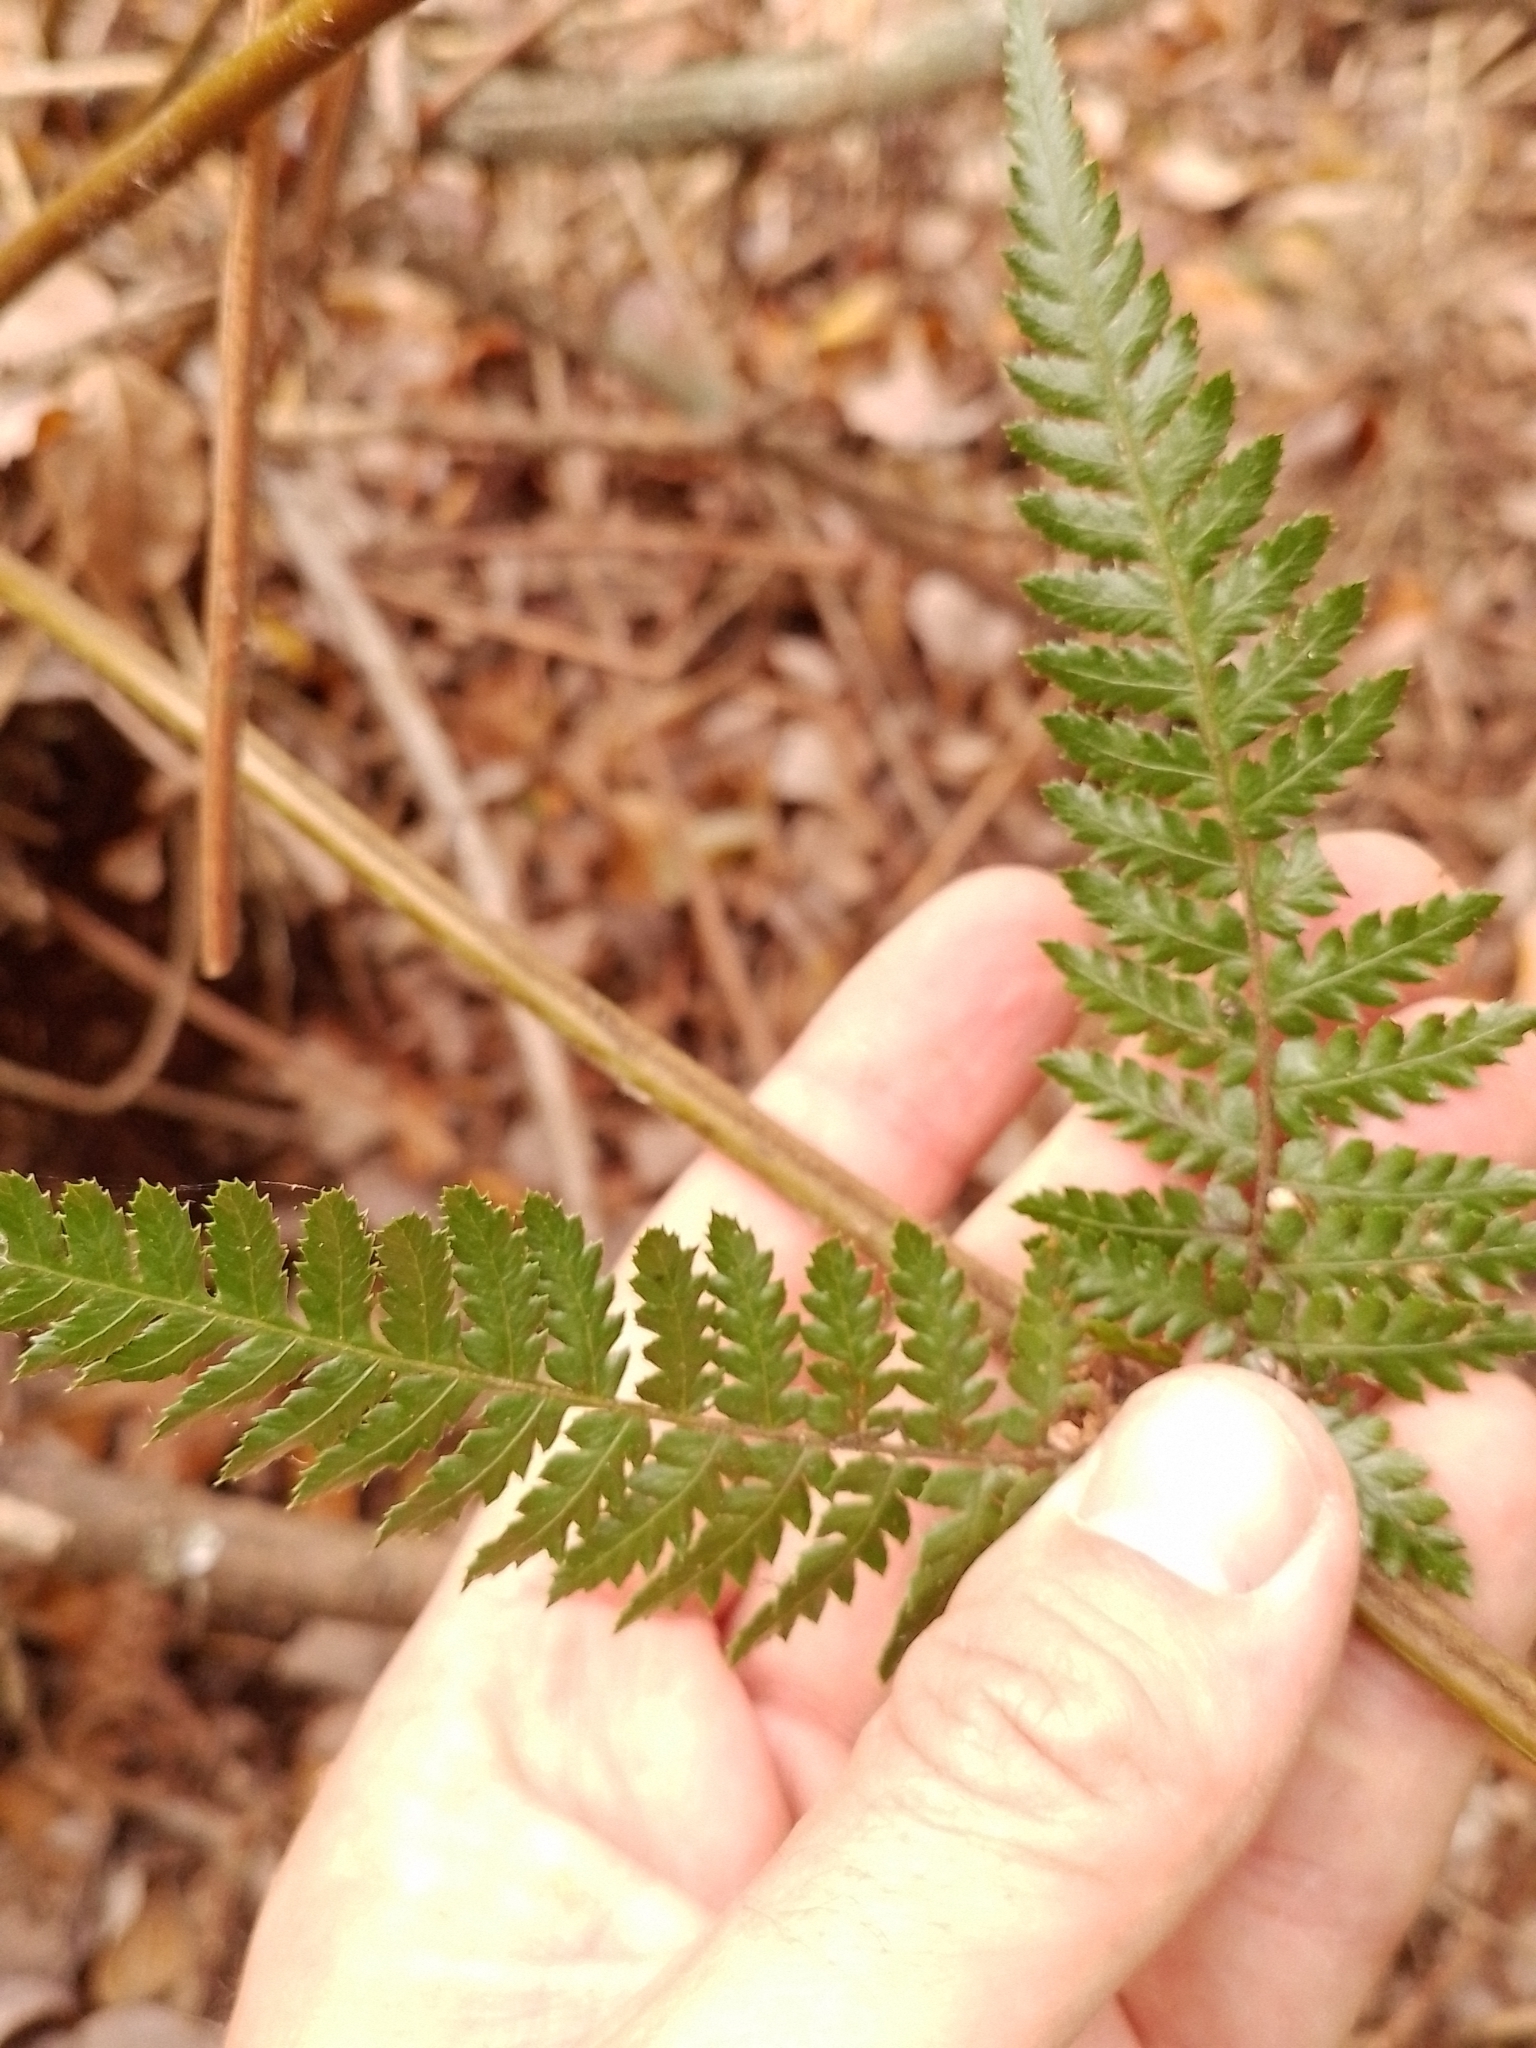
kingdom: Plantae
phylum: Tracheophyta
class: Polypodiopsida
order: Cyatheales
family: Dicksoniaceae
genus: Dicksonia
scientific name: Dicksonia fibrosa
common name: Golden tree fern
